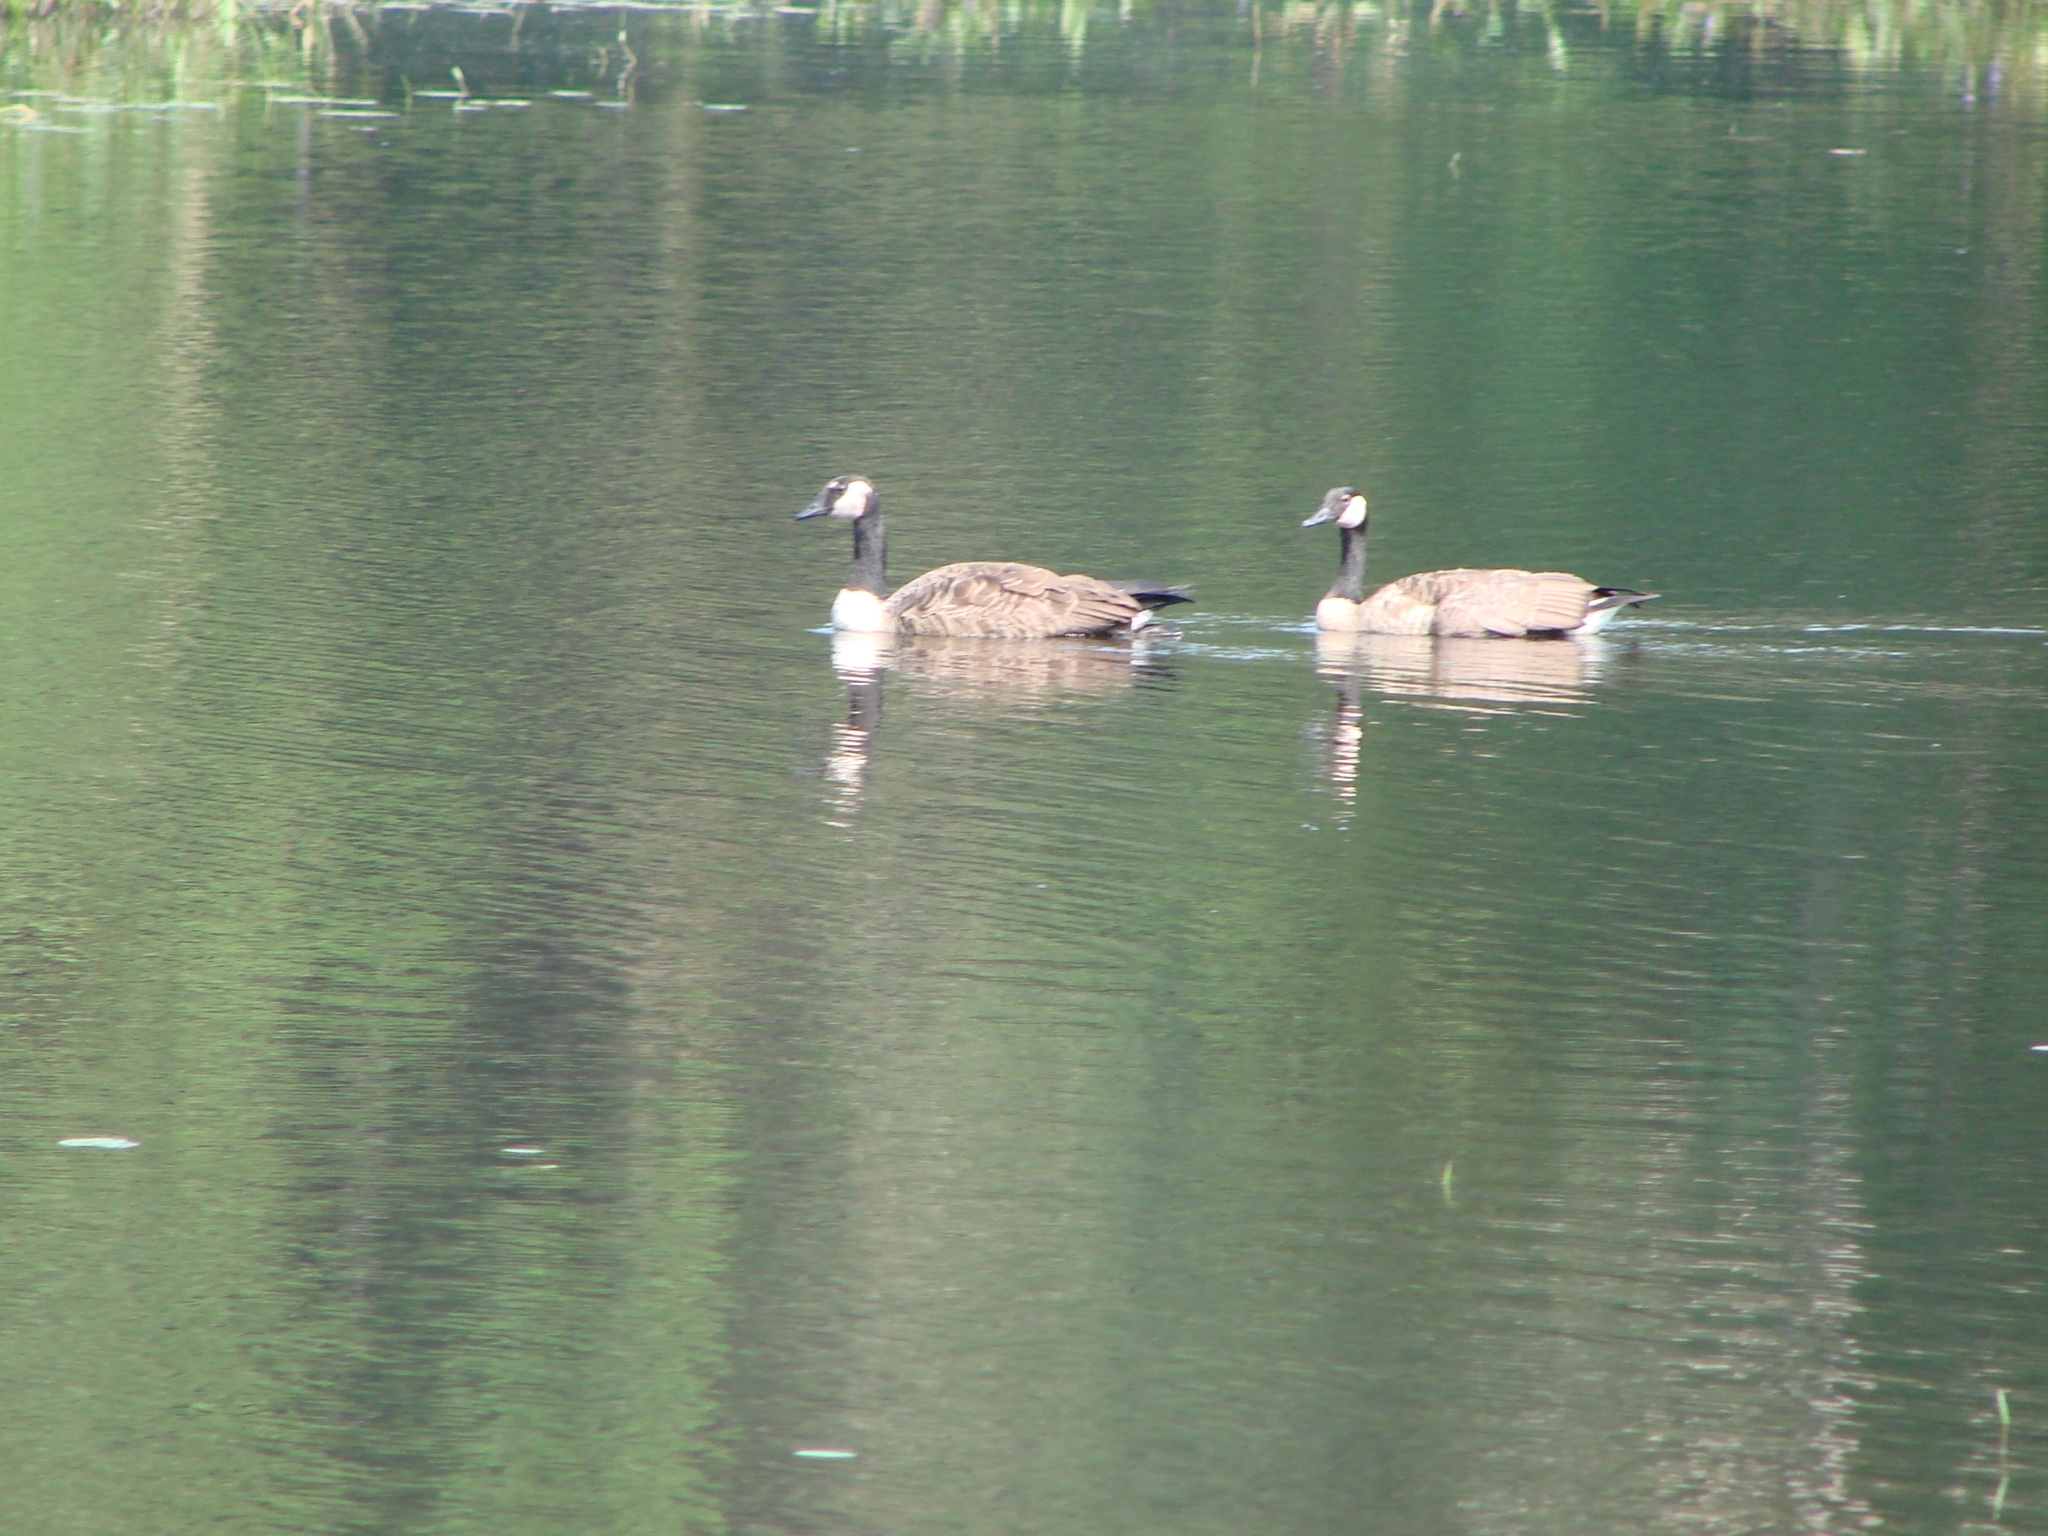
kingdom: Animalia
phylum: Chordata
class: Aves
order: Anseriformes
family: Anatidae
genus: Branta
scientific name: Branta canadensis
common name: Canada goose
